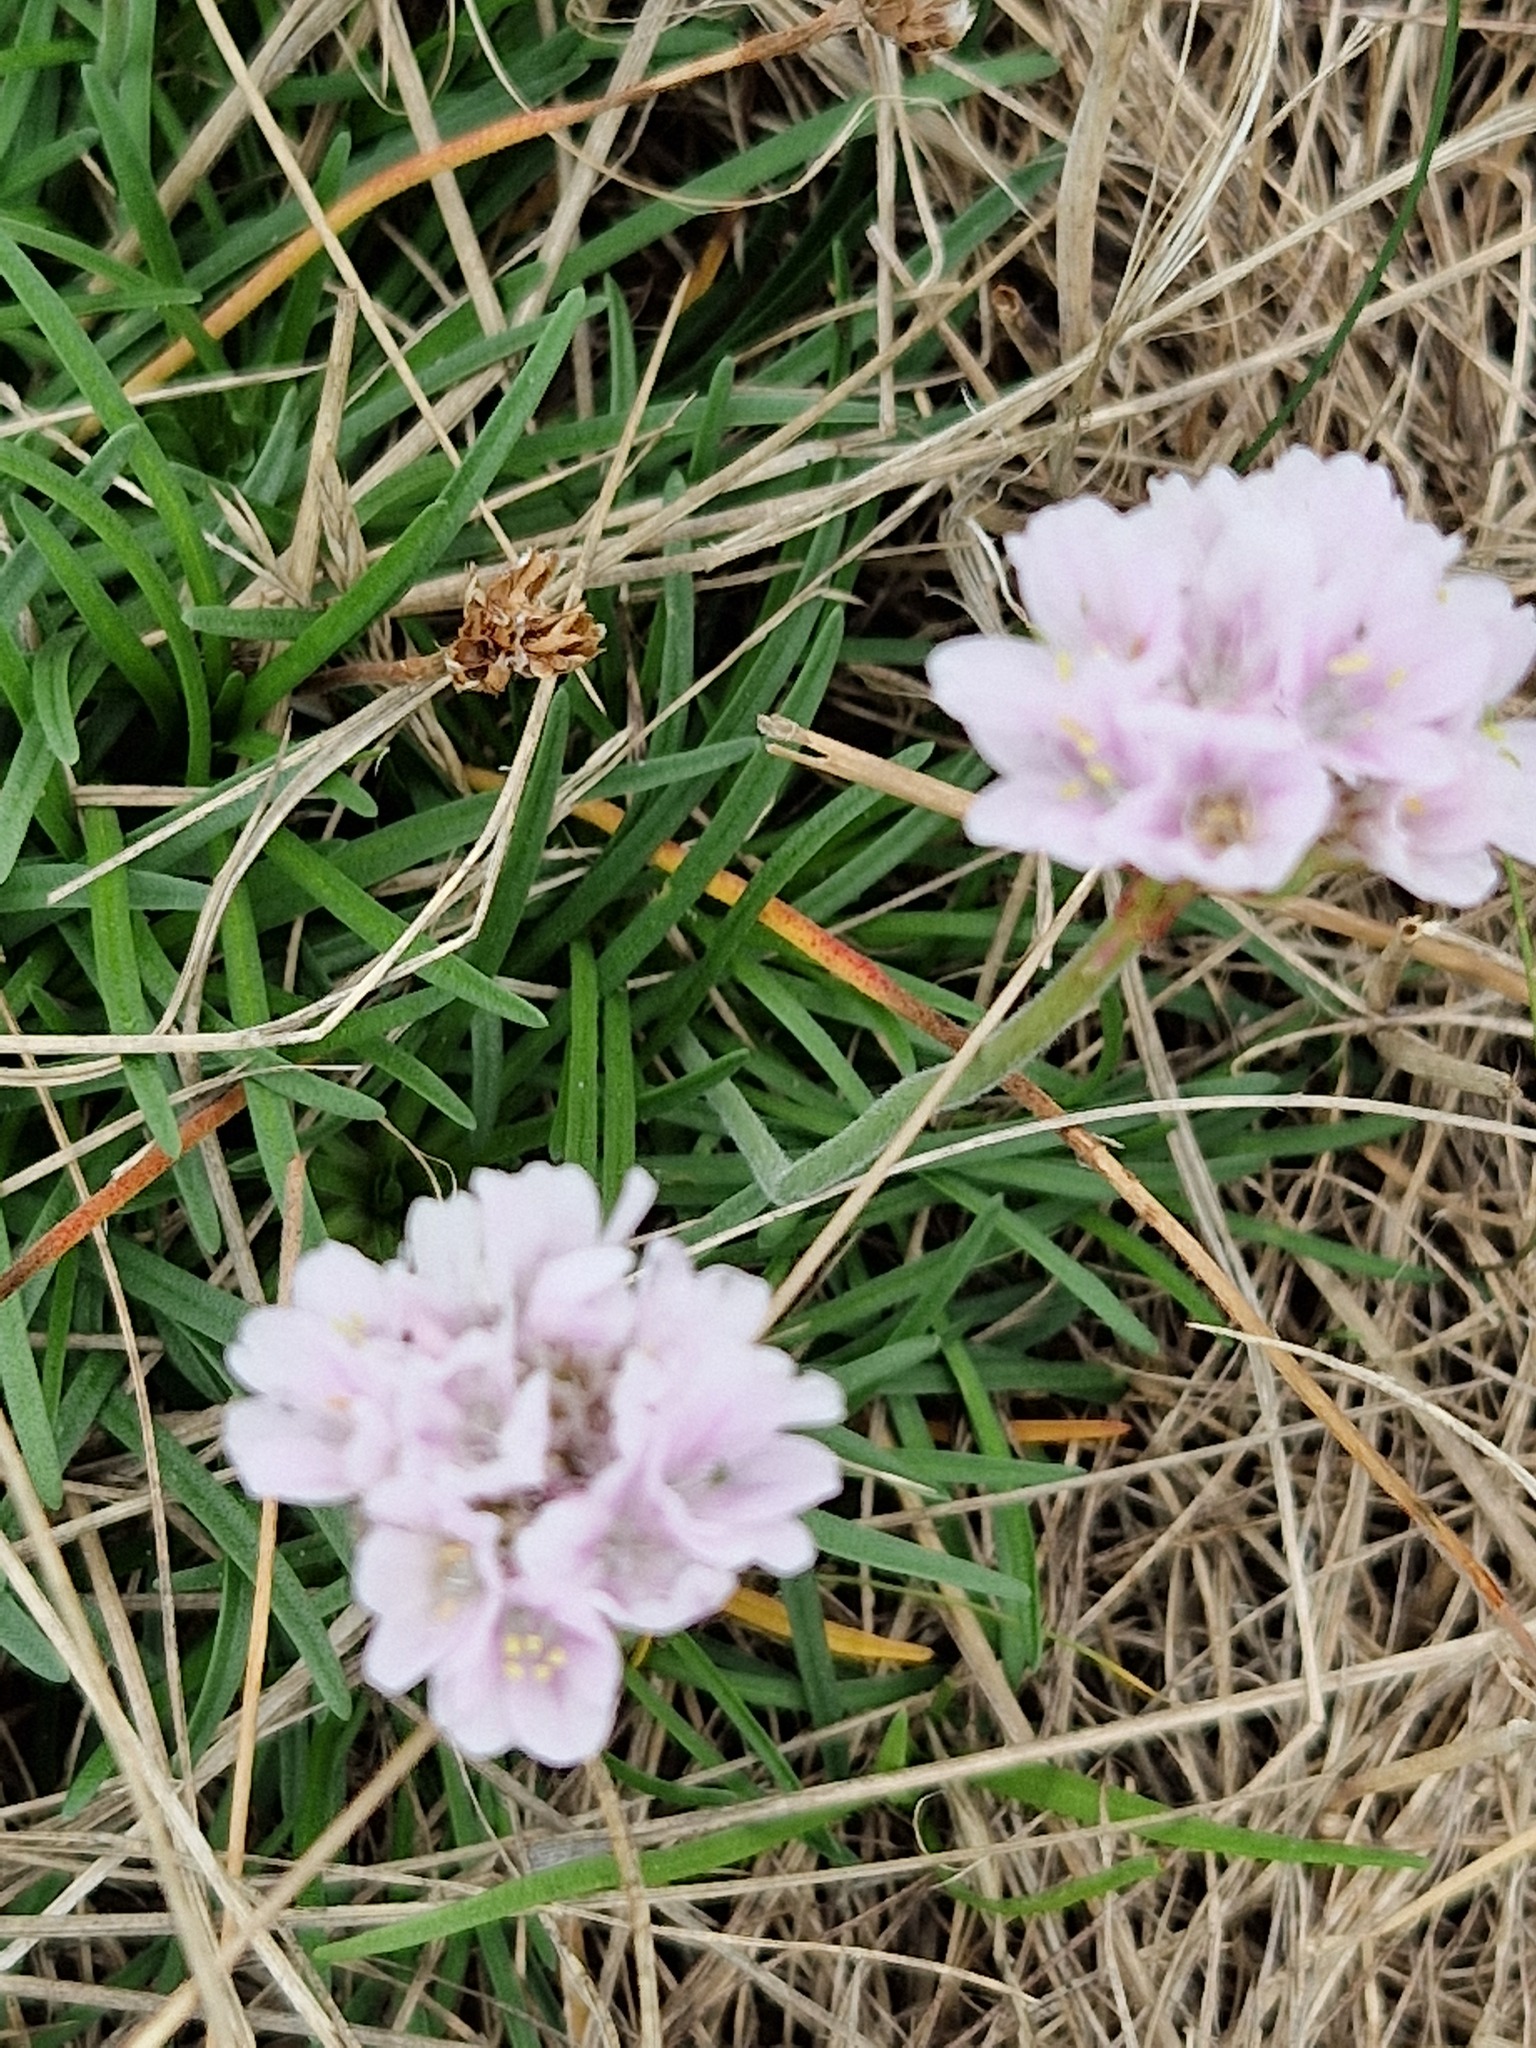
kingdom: Plantae
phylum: Tracheophyta
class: Magnoliopsida
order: Caryophyllales
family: Plumbaginaceae
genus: Armeria
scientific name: Armeria maritima
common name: Thrift
